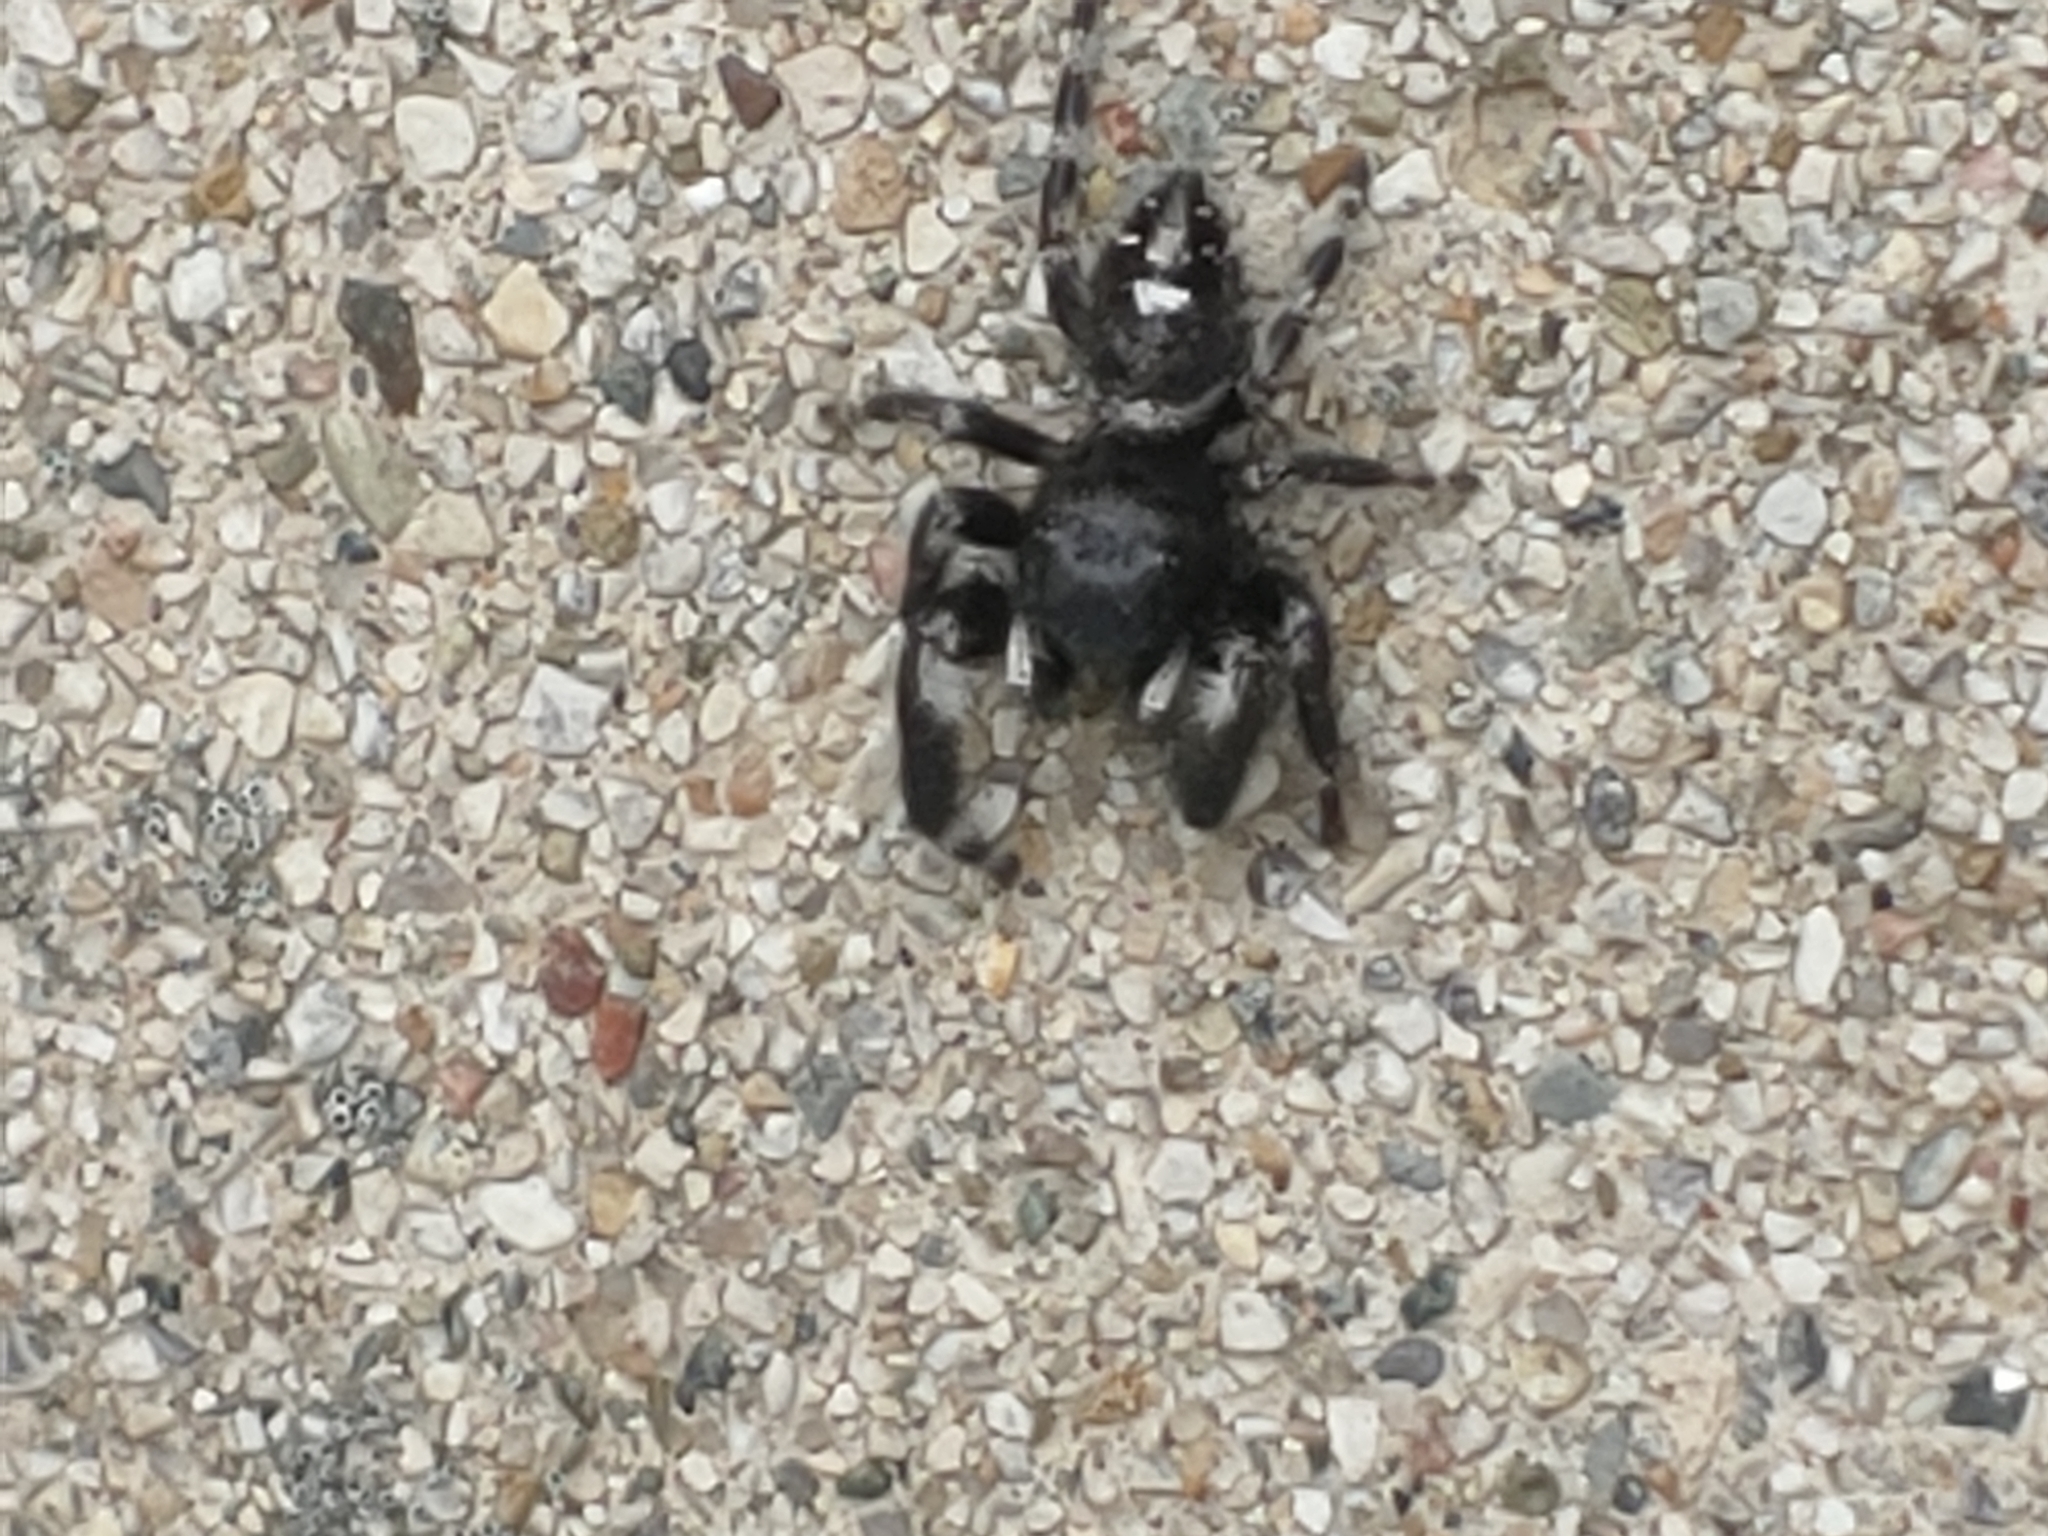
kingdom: Animalia
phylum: Arthropoda
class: Arachnida
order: Araneae
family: Salticidae
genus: Phidippus
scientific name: Phidippus audax
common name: Bold jumper
